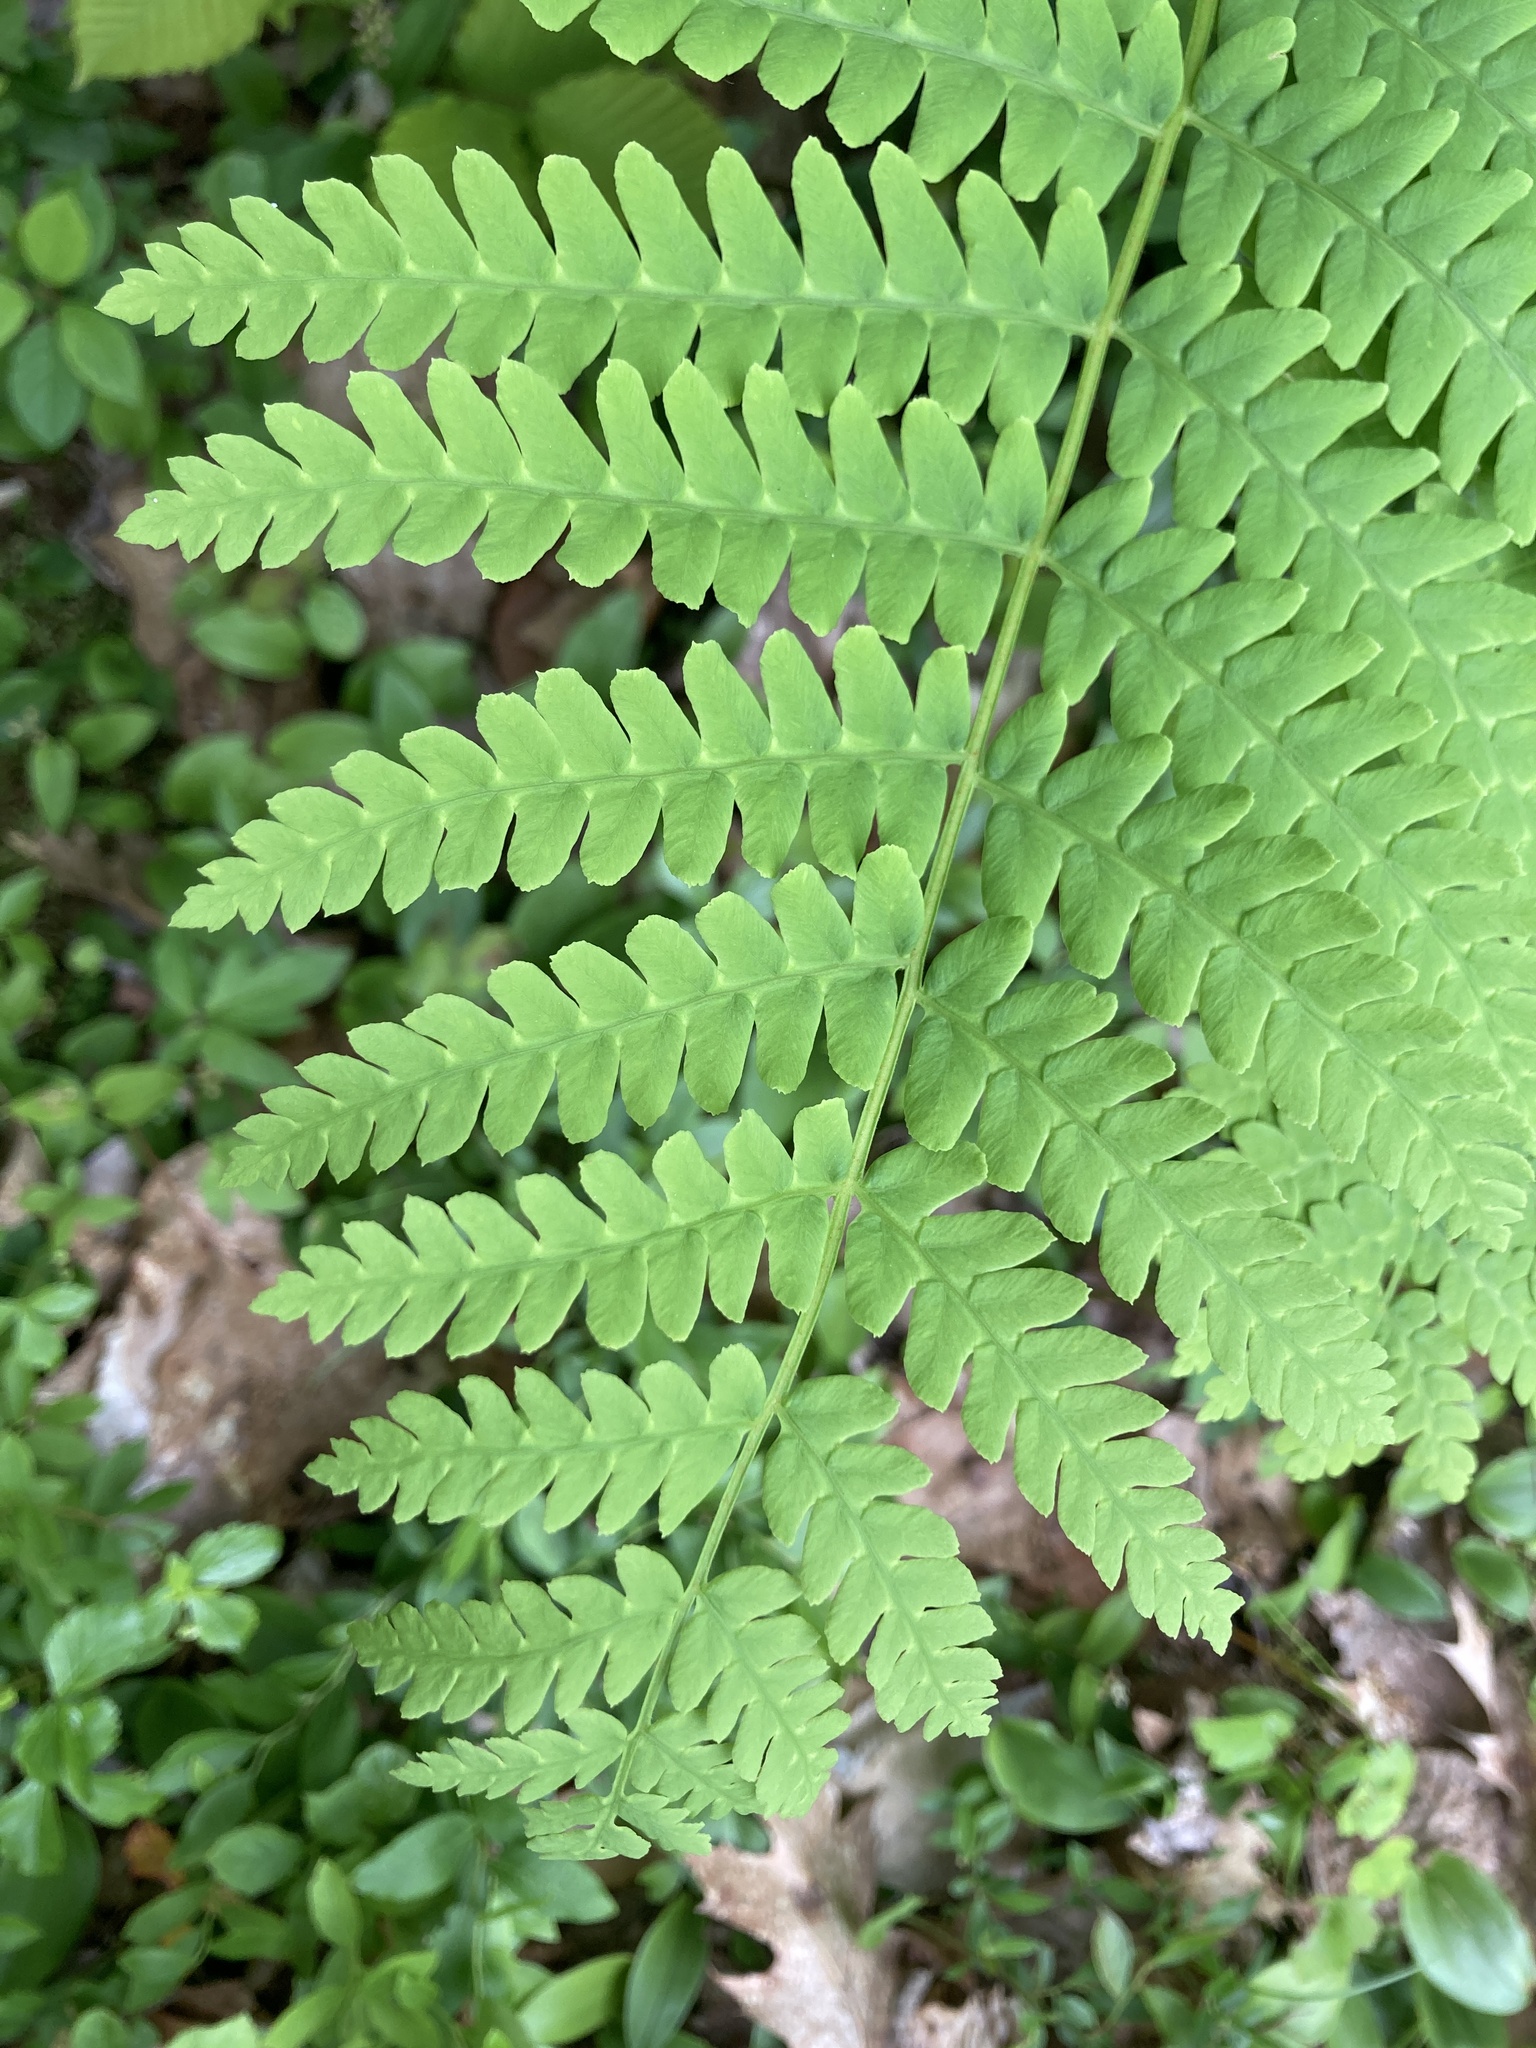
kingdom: Plantae
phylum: Tracheophyta
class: Polypodiopsida
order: Osmundales
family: Osmundaceae
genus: Claytosmunda
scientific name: Claytosmunda claytoniana
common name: Clayton's fern
